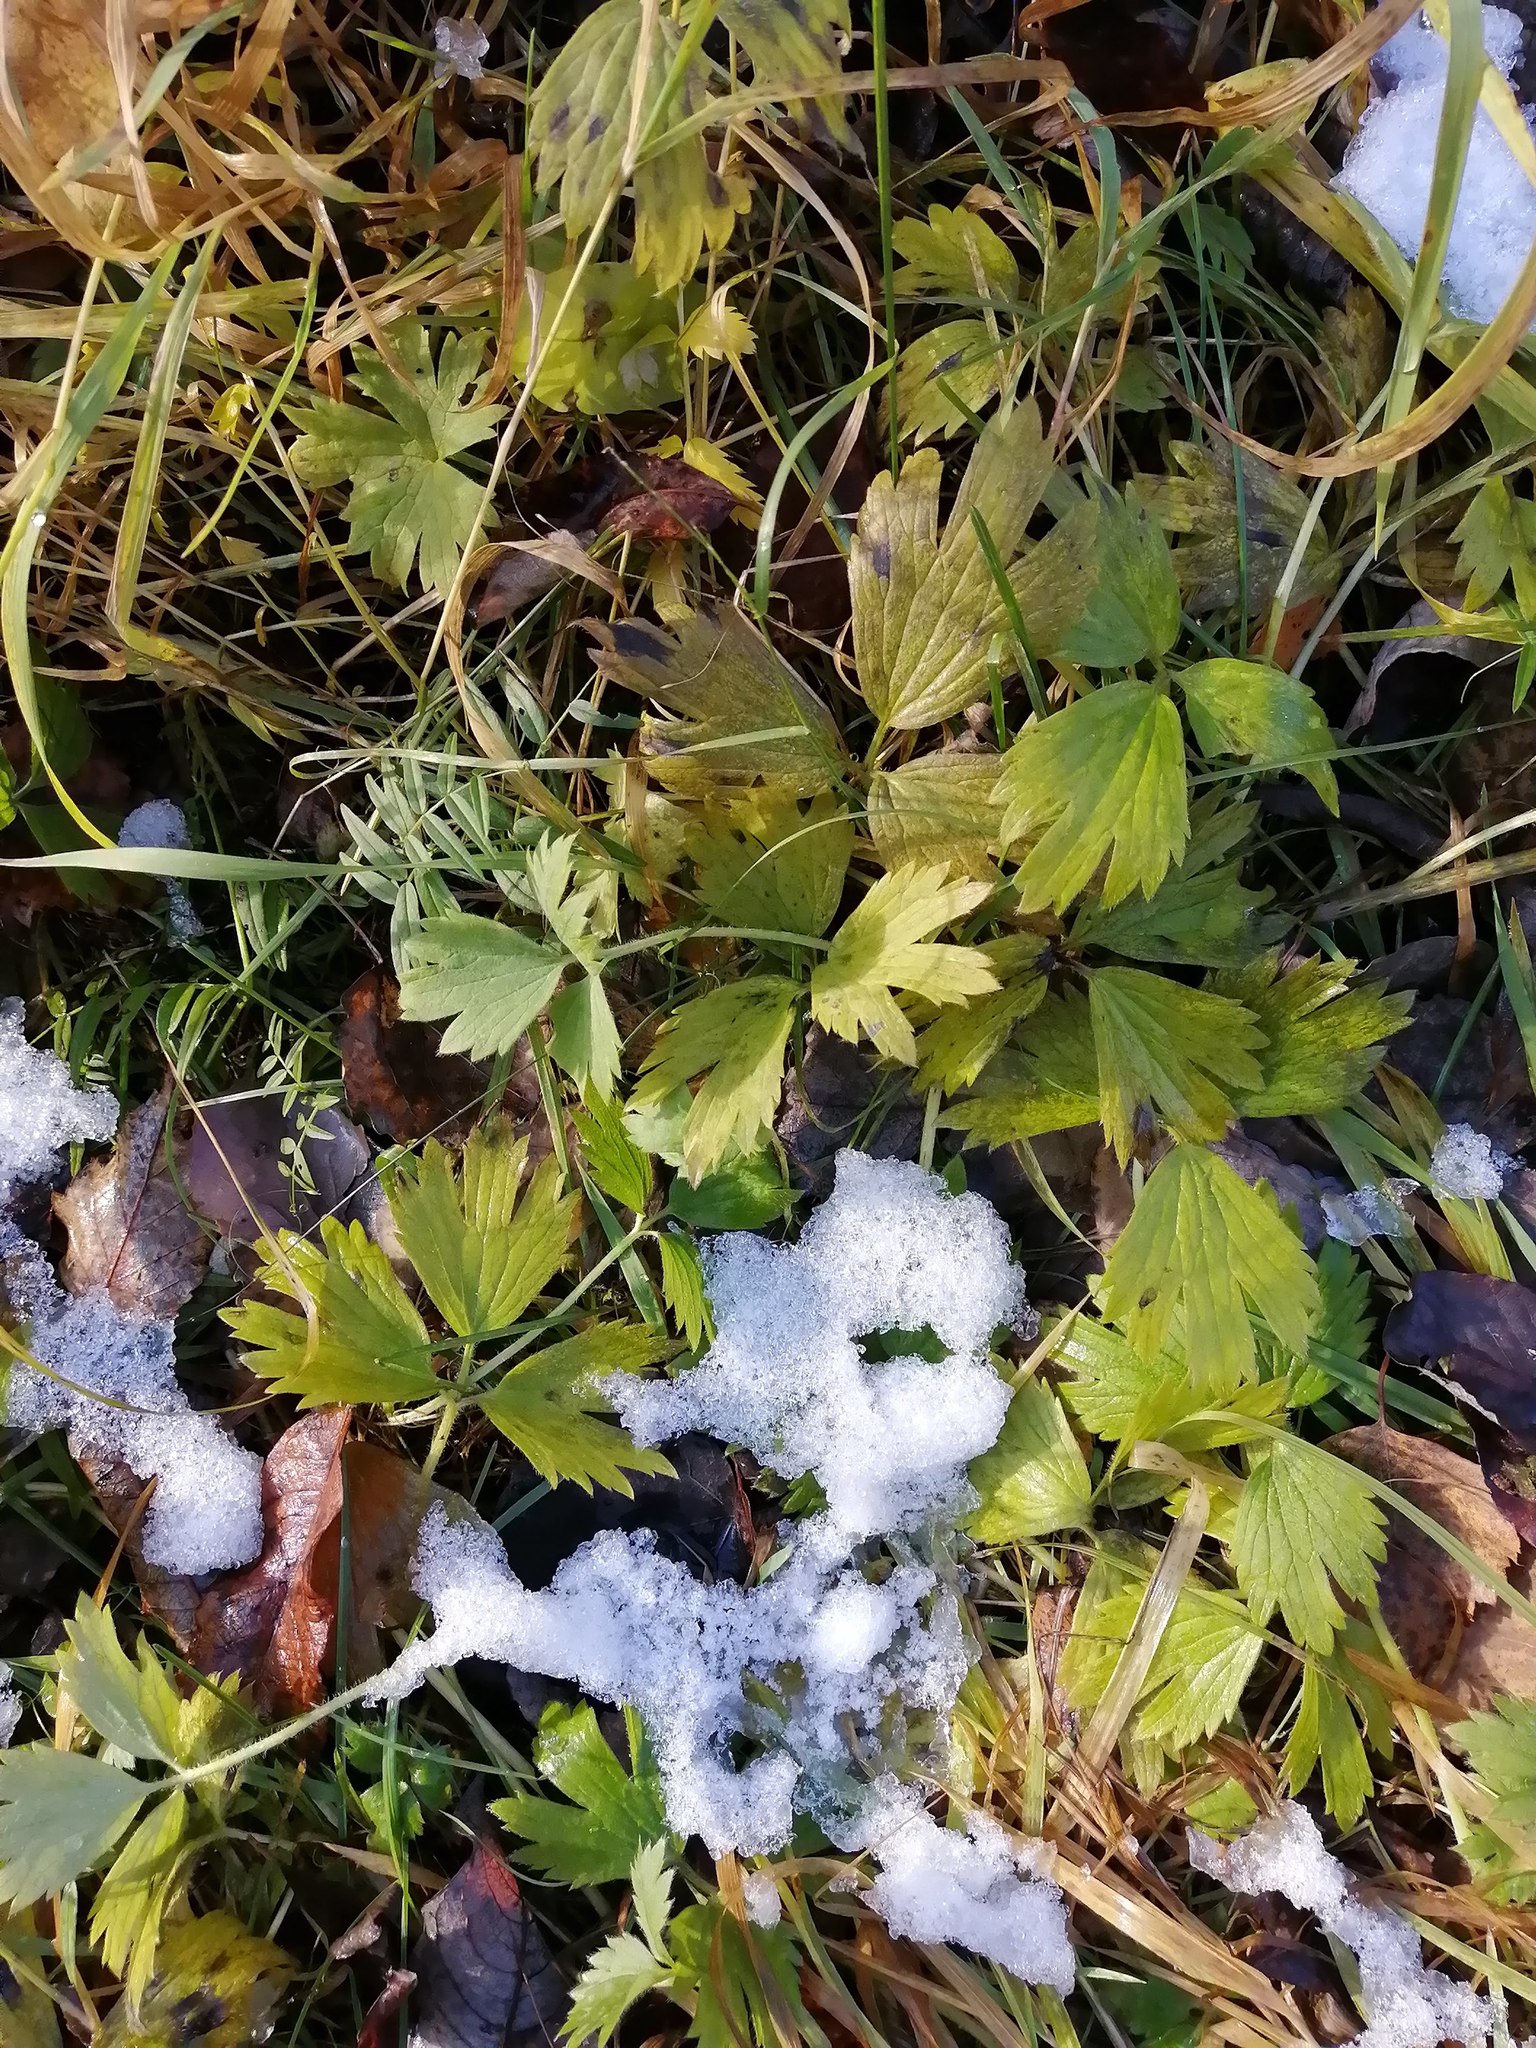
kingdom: Plantae
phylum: Tracheophyta
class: Magnoliopsida
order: Ranunculales
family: Ranunculaceae
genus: Ranunculus
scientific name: Ranunculus repens
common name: Creeping buttercup
